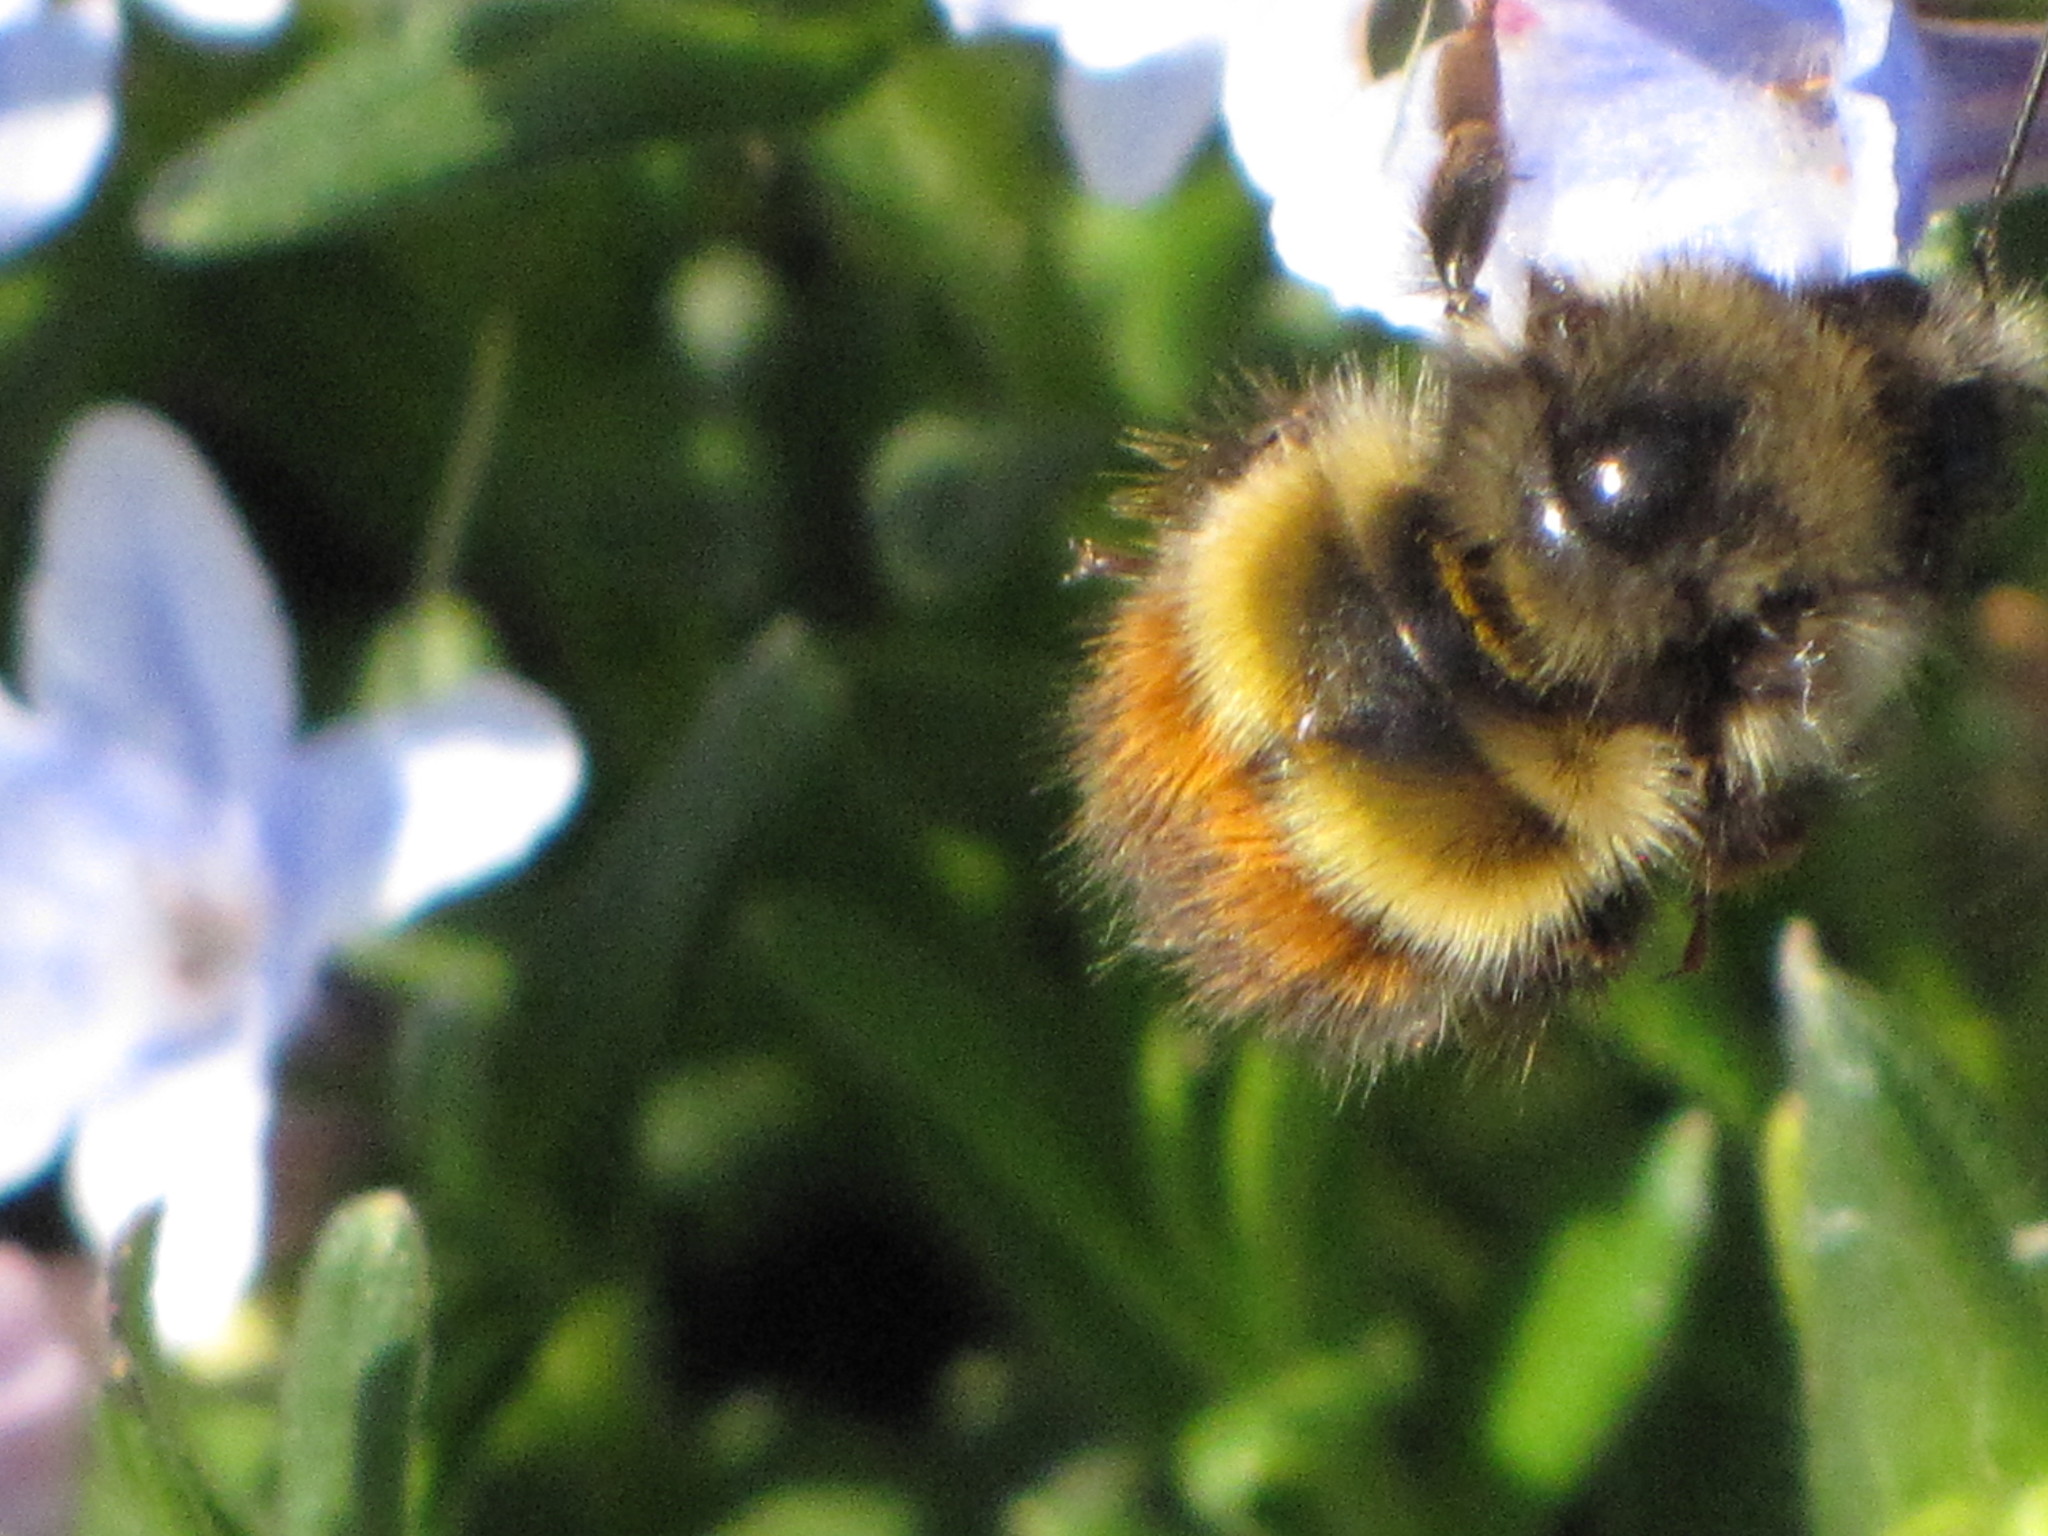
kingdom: Animalia
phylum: Arthropoda
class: Insecta
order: Hymenoptera
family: Apidae
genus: Bombus
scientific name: Bombus flavifrons
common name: Yellow head bumble bee
